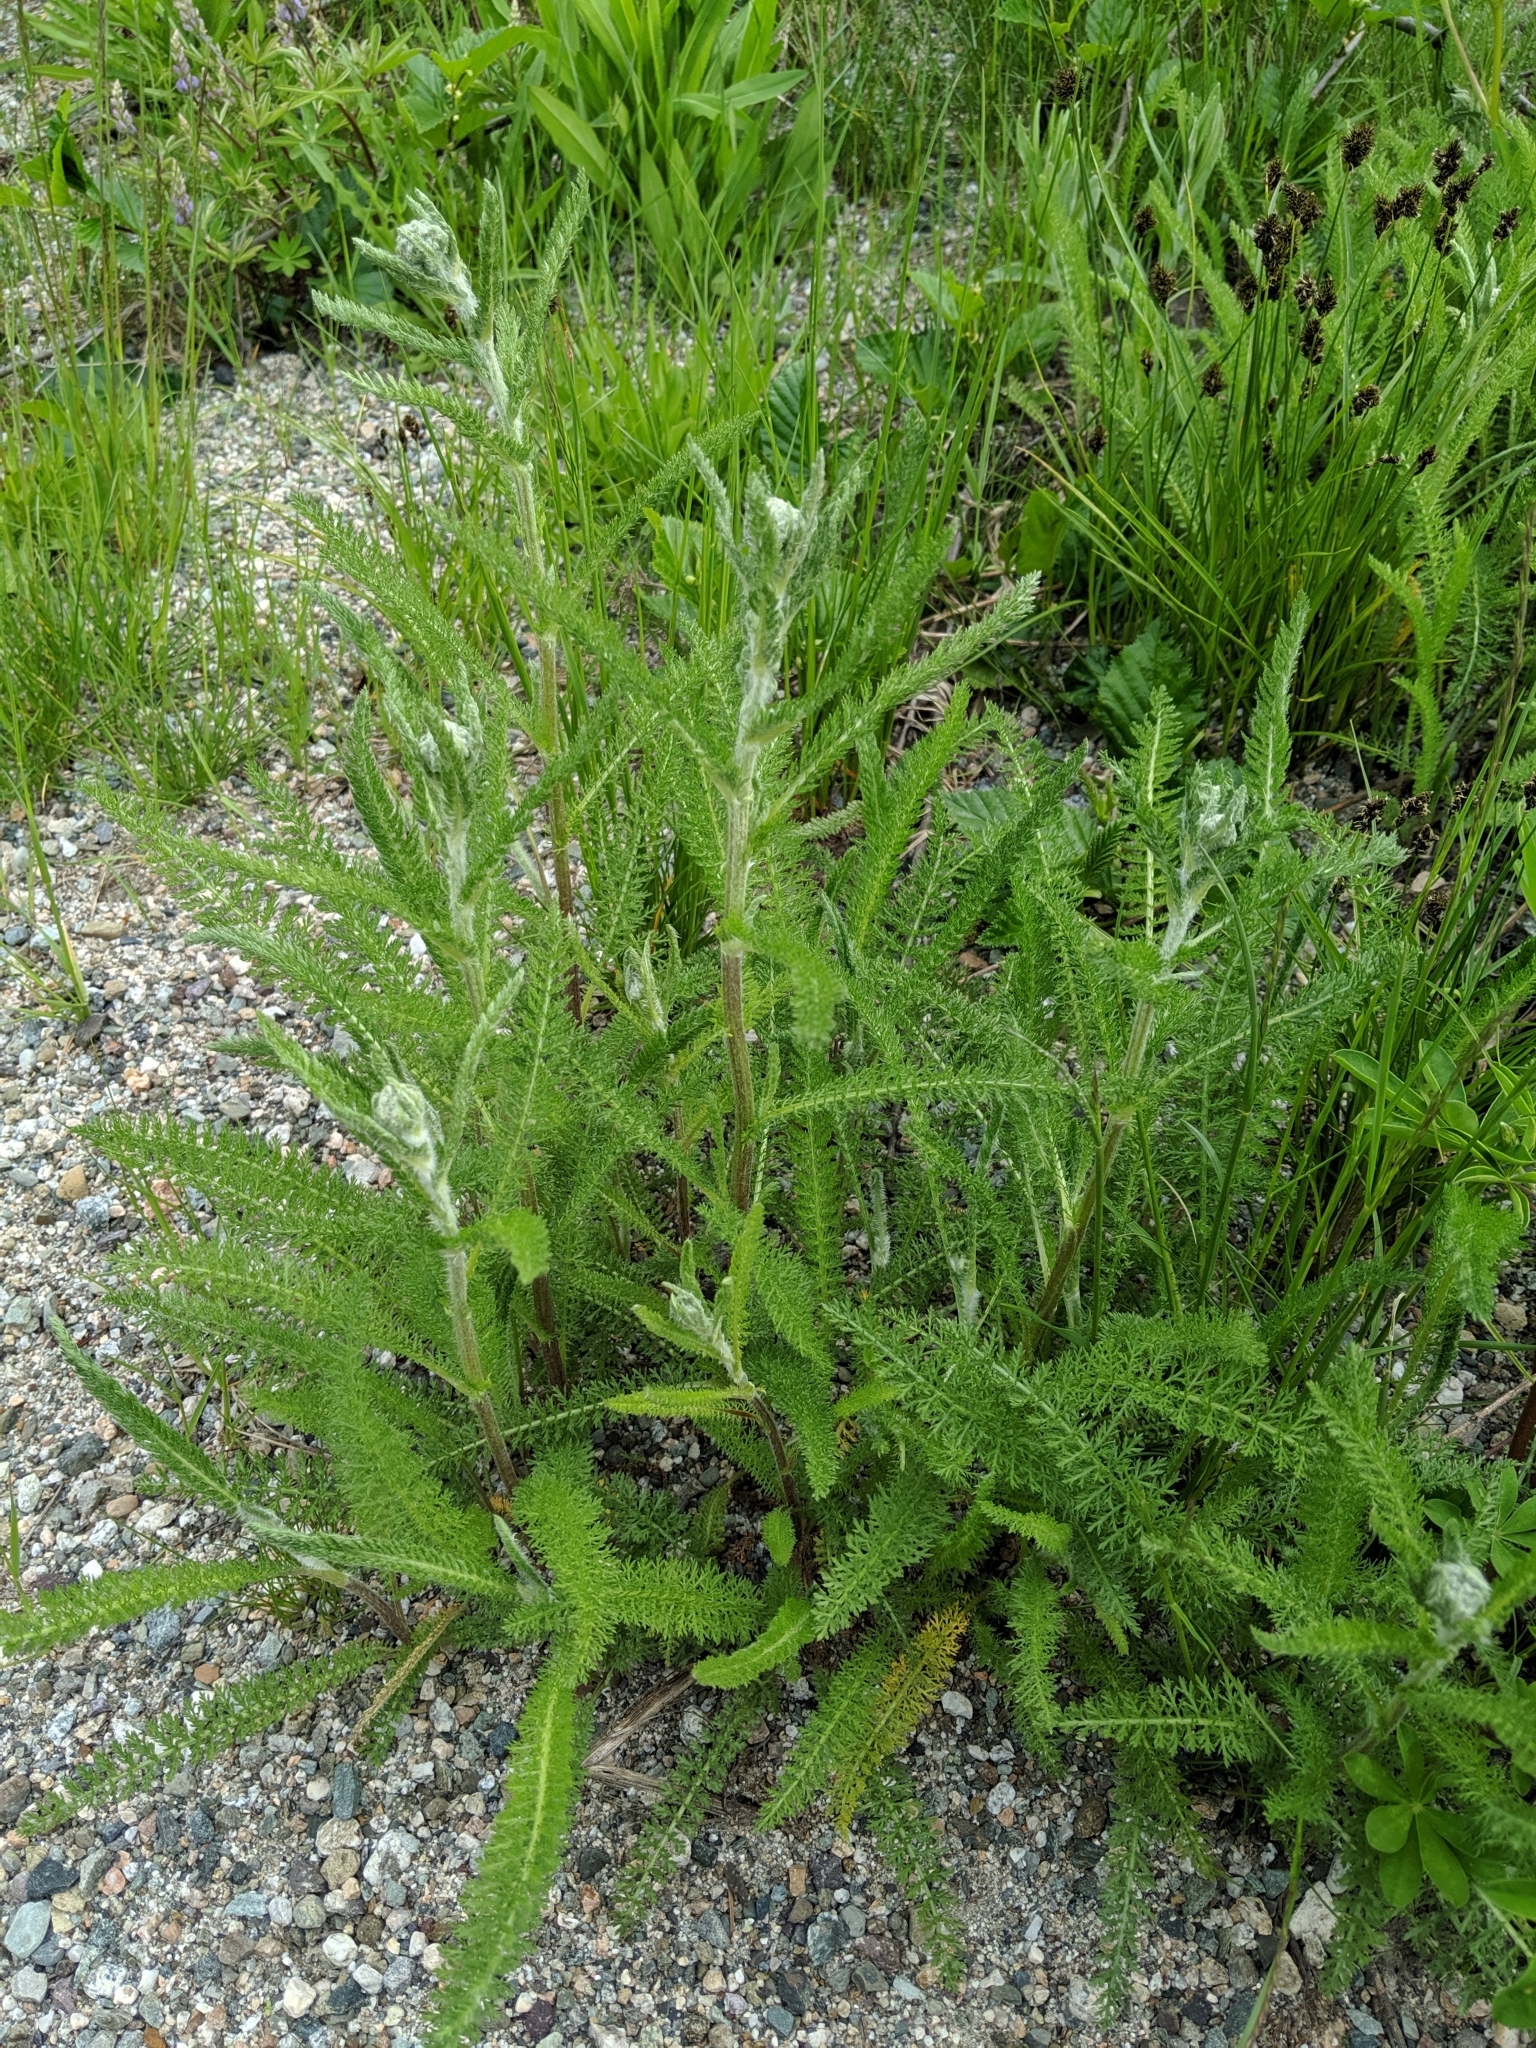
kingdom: Plantae
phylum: Tracheophyta
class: Magnoliopsida
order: Asterales
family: Asteraceae
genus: Achillea
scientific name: Achillea millefolium
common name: Yarrow
